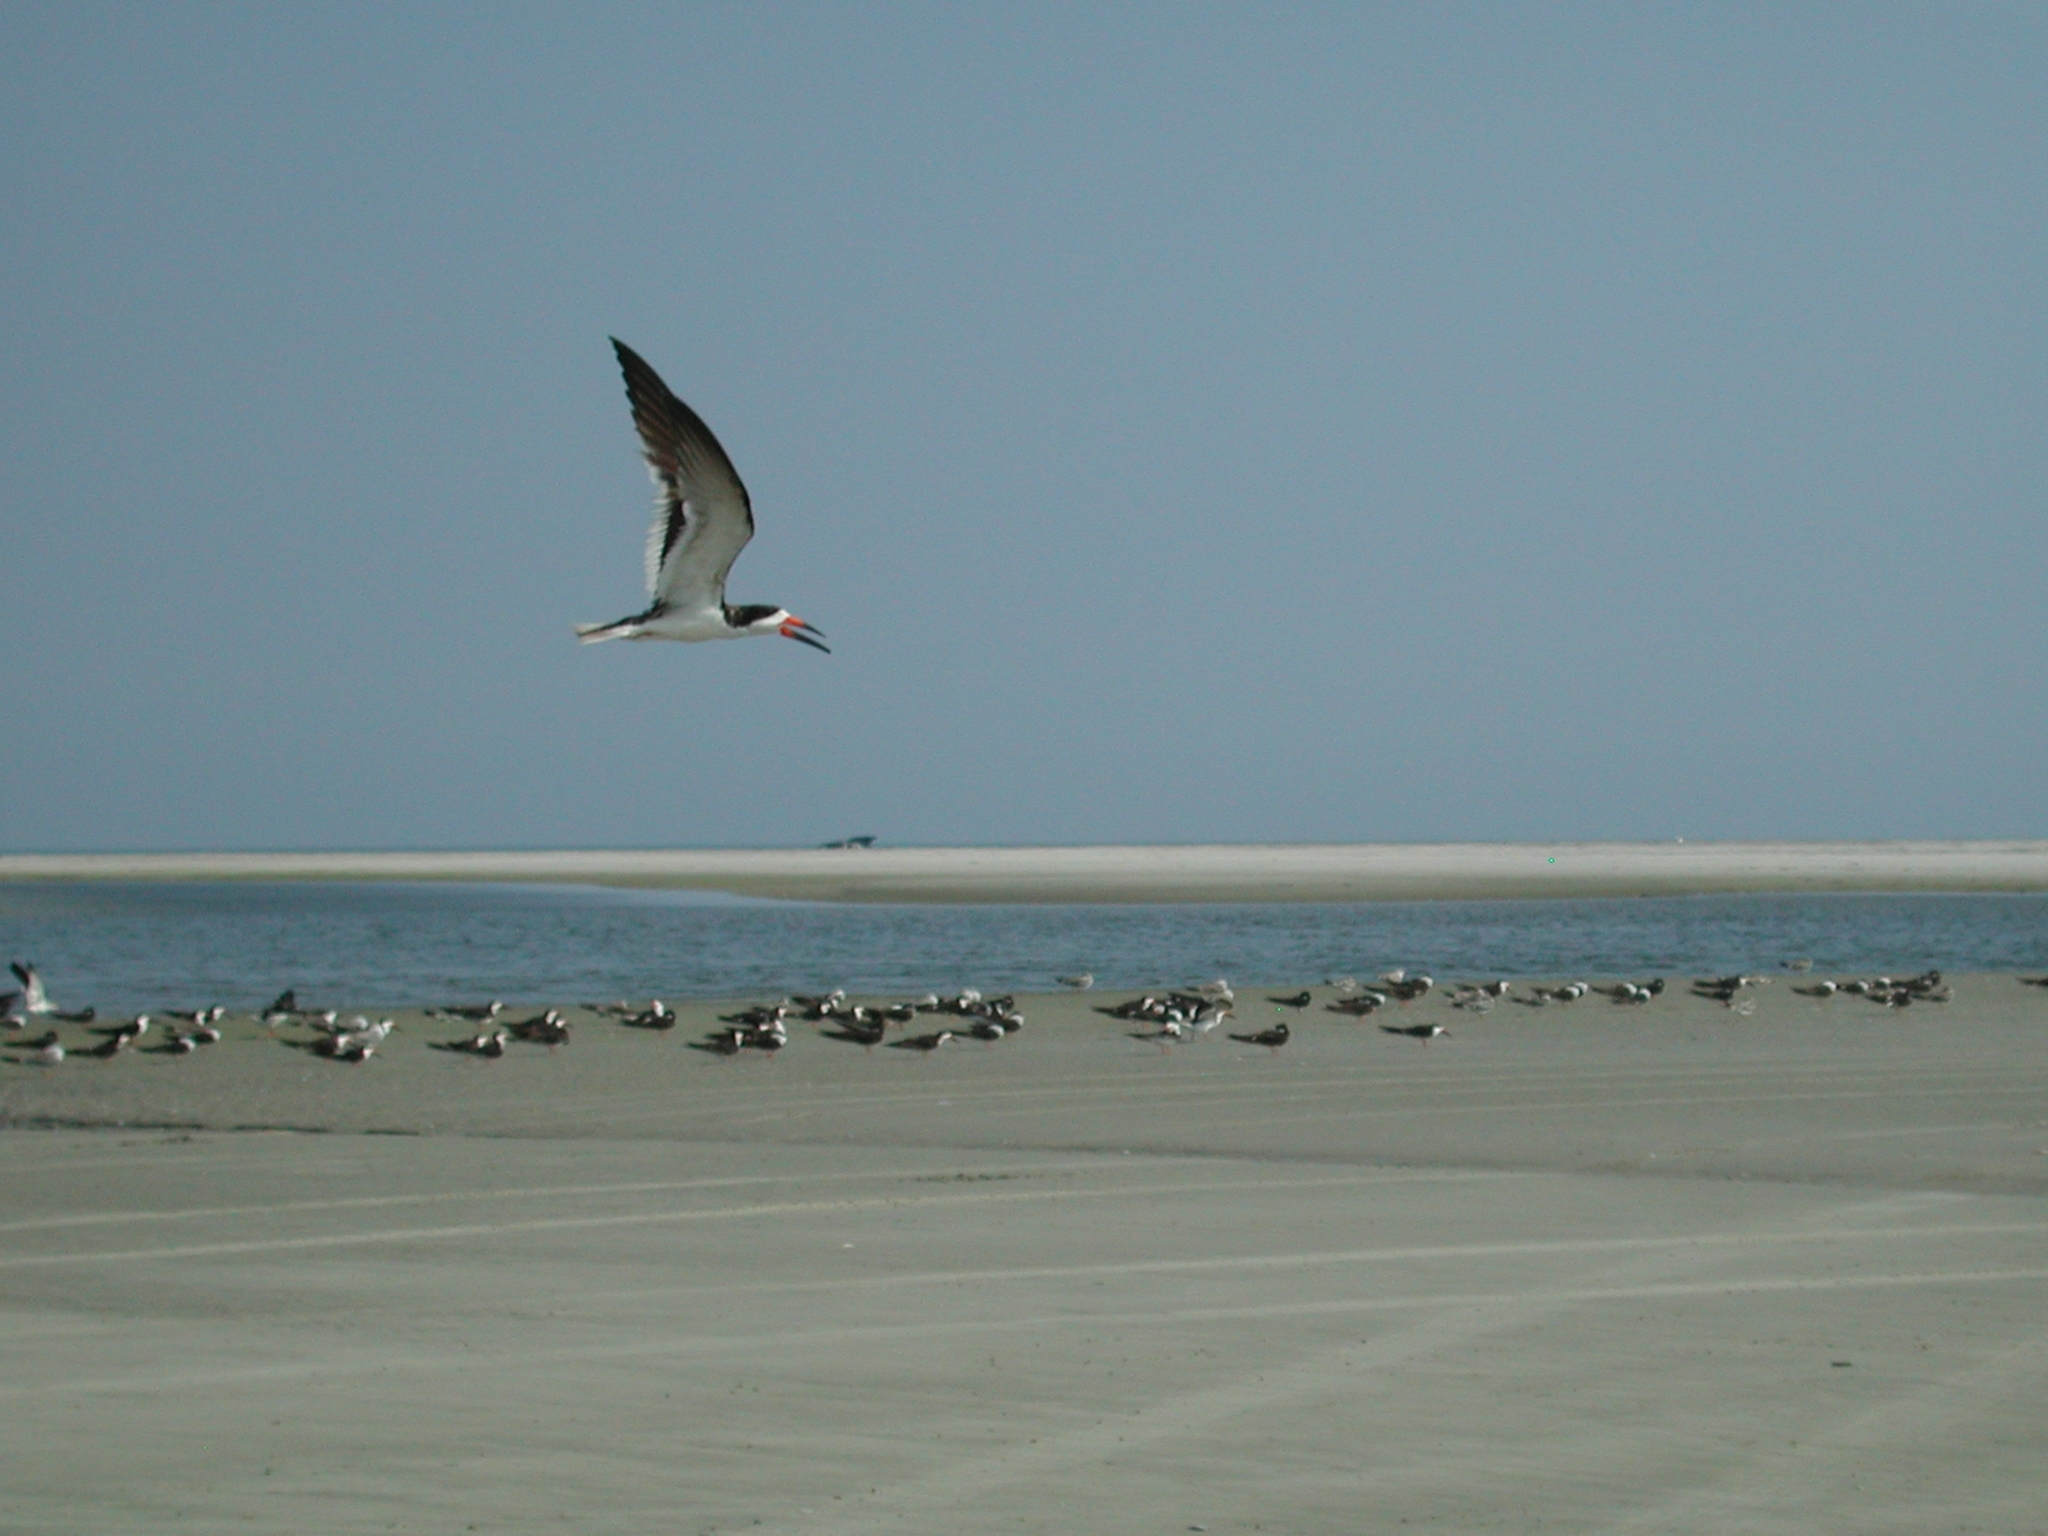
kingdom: Animalia
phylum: Chordata
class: Aves
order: Charadriiformes
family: Laridae
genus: Rynchops
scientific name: Rynchops niger
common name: Black skimmer
